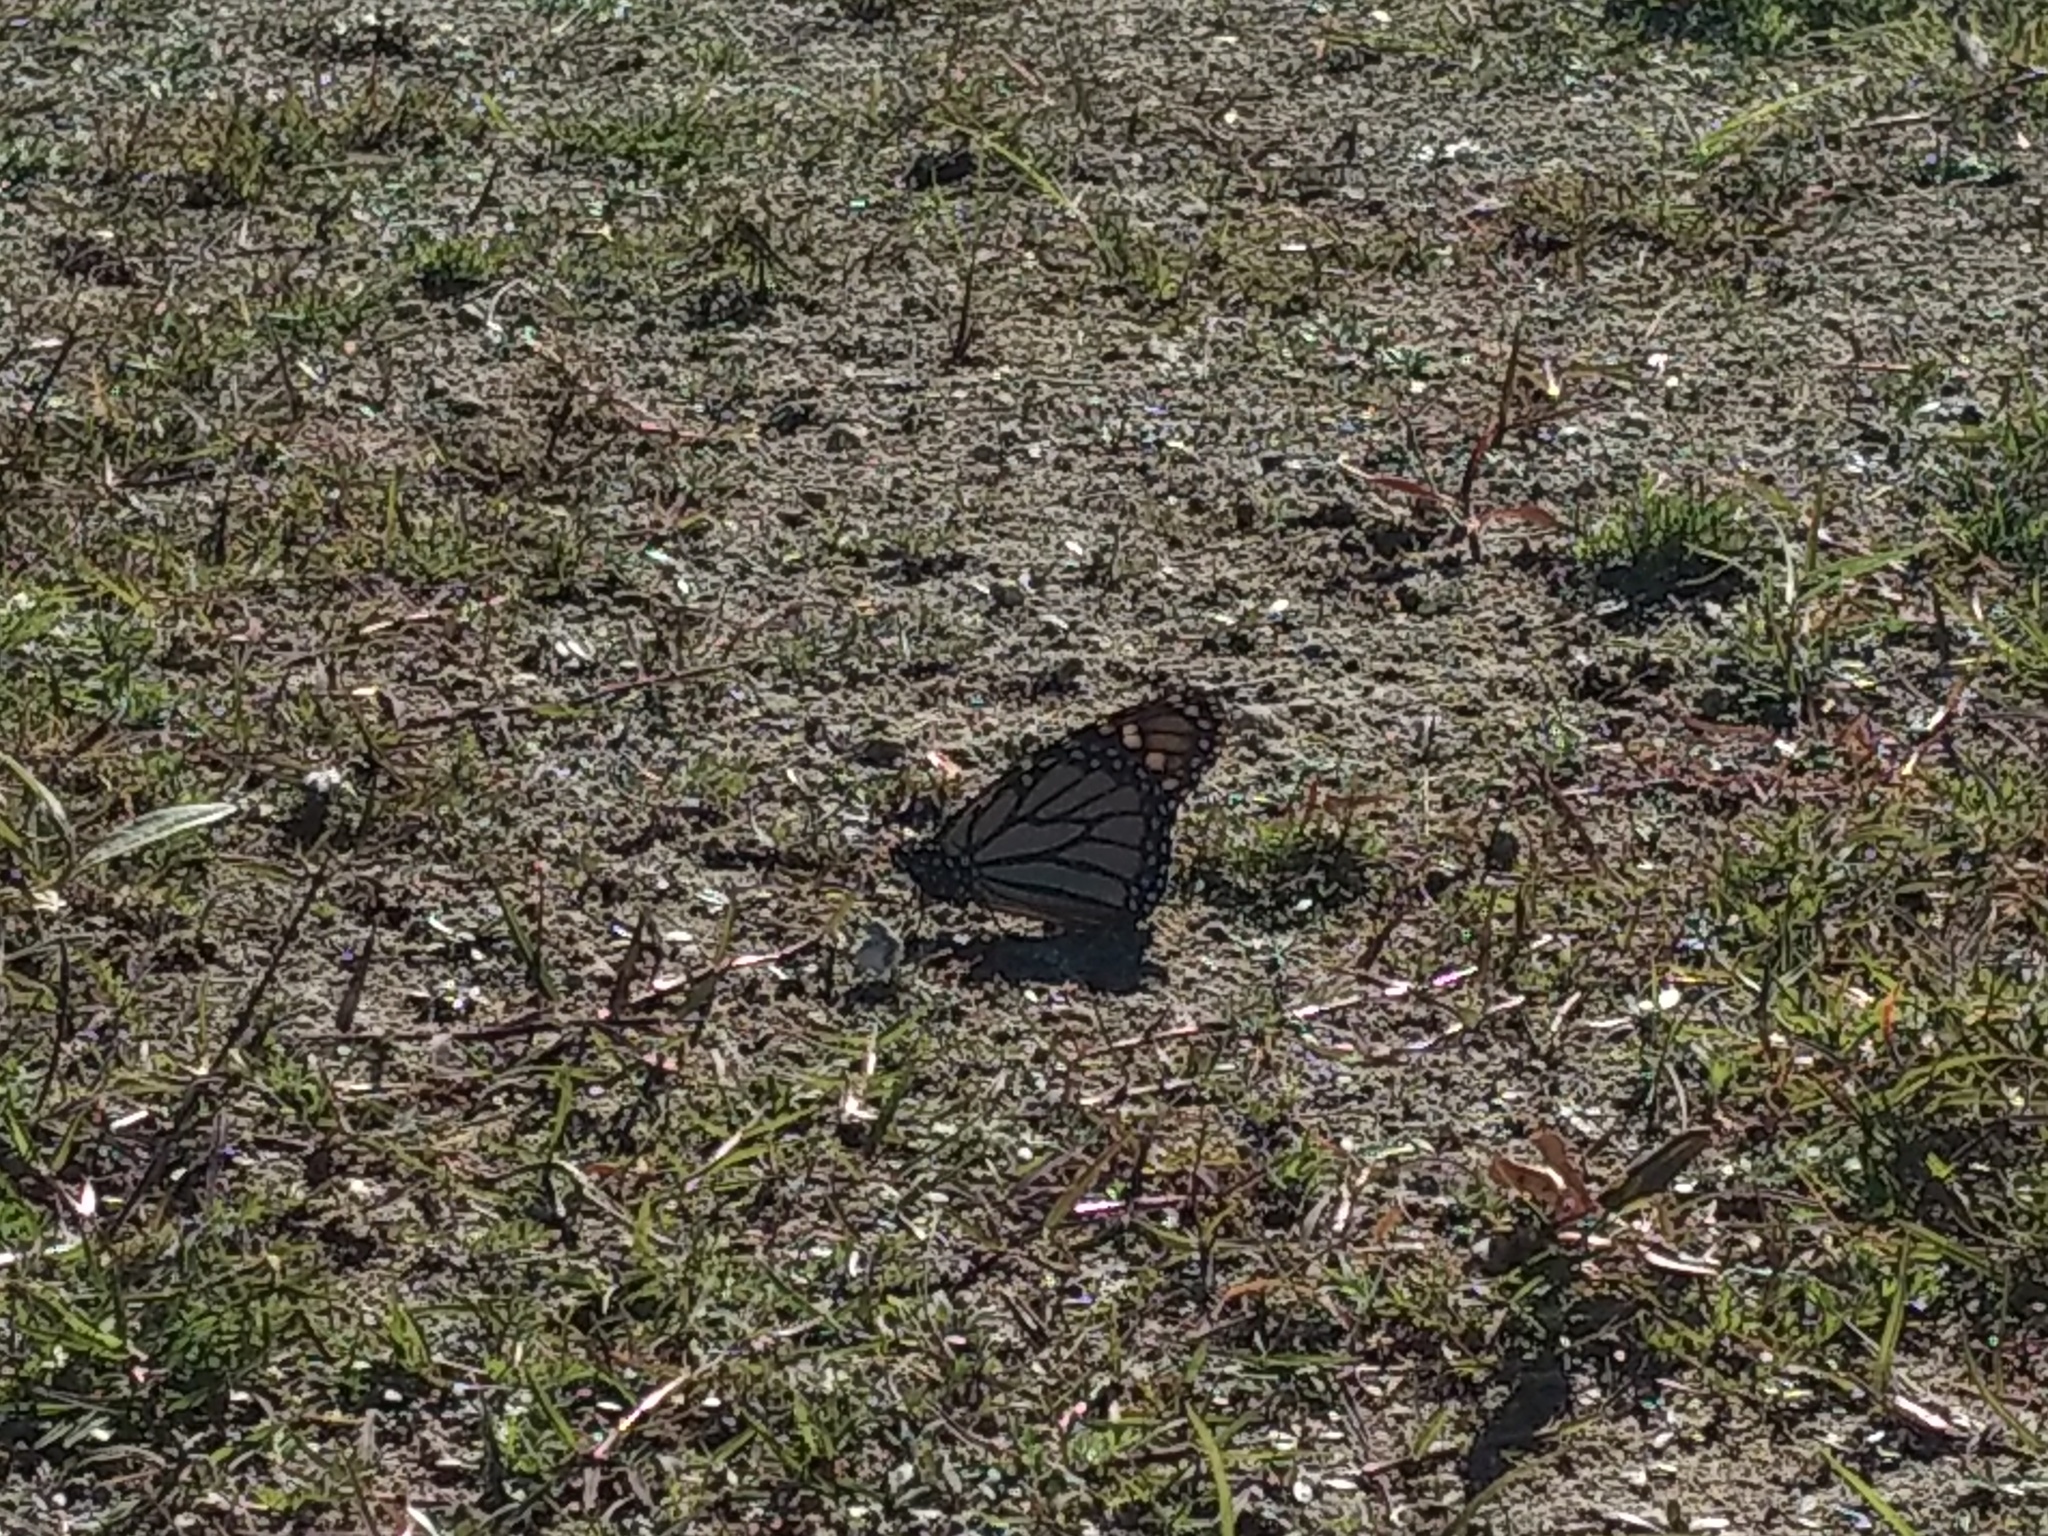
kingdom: Animalia
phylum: Arthropoda
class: Insecta
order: Lepidoptera
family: Nymphalidae
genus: Danaus
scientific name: Danaus plexippus
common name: Monarch
